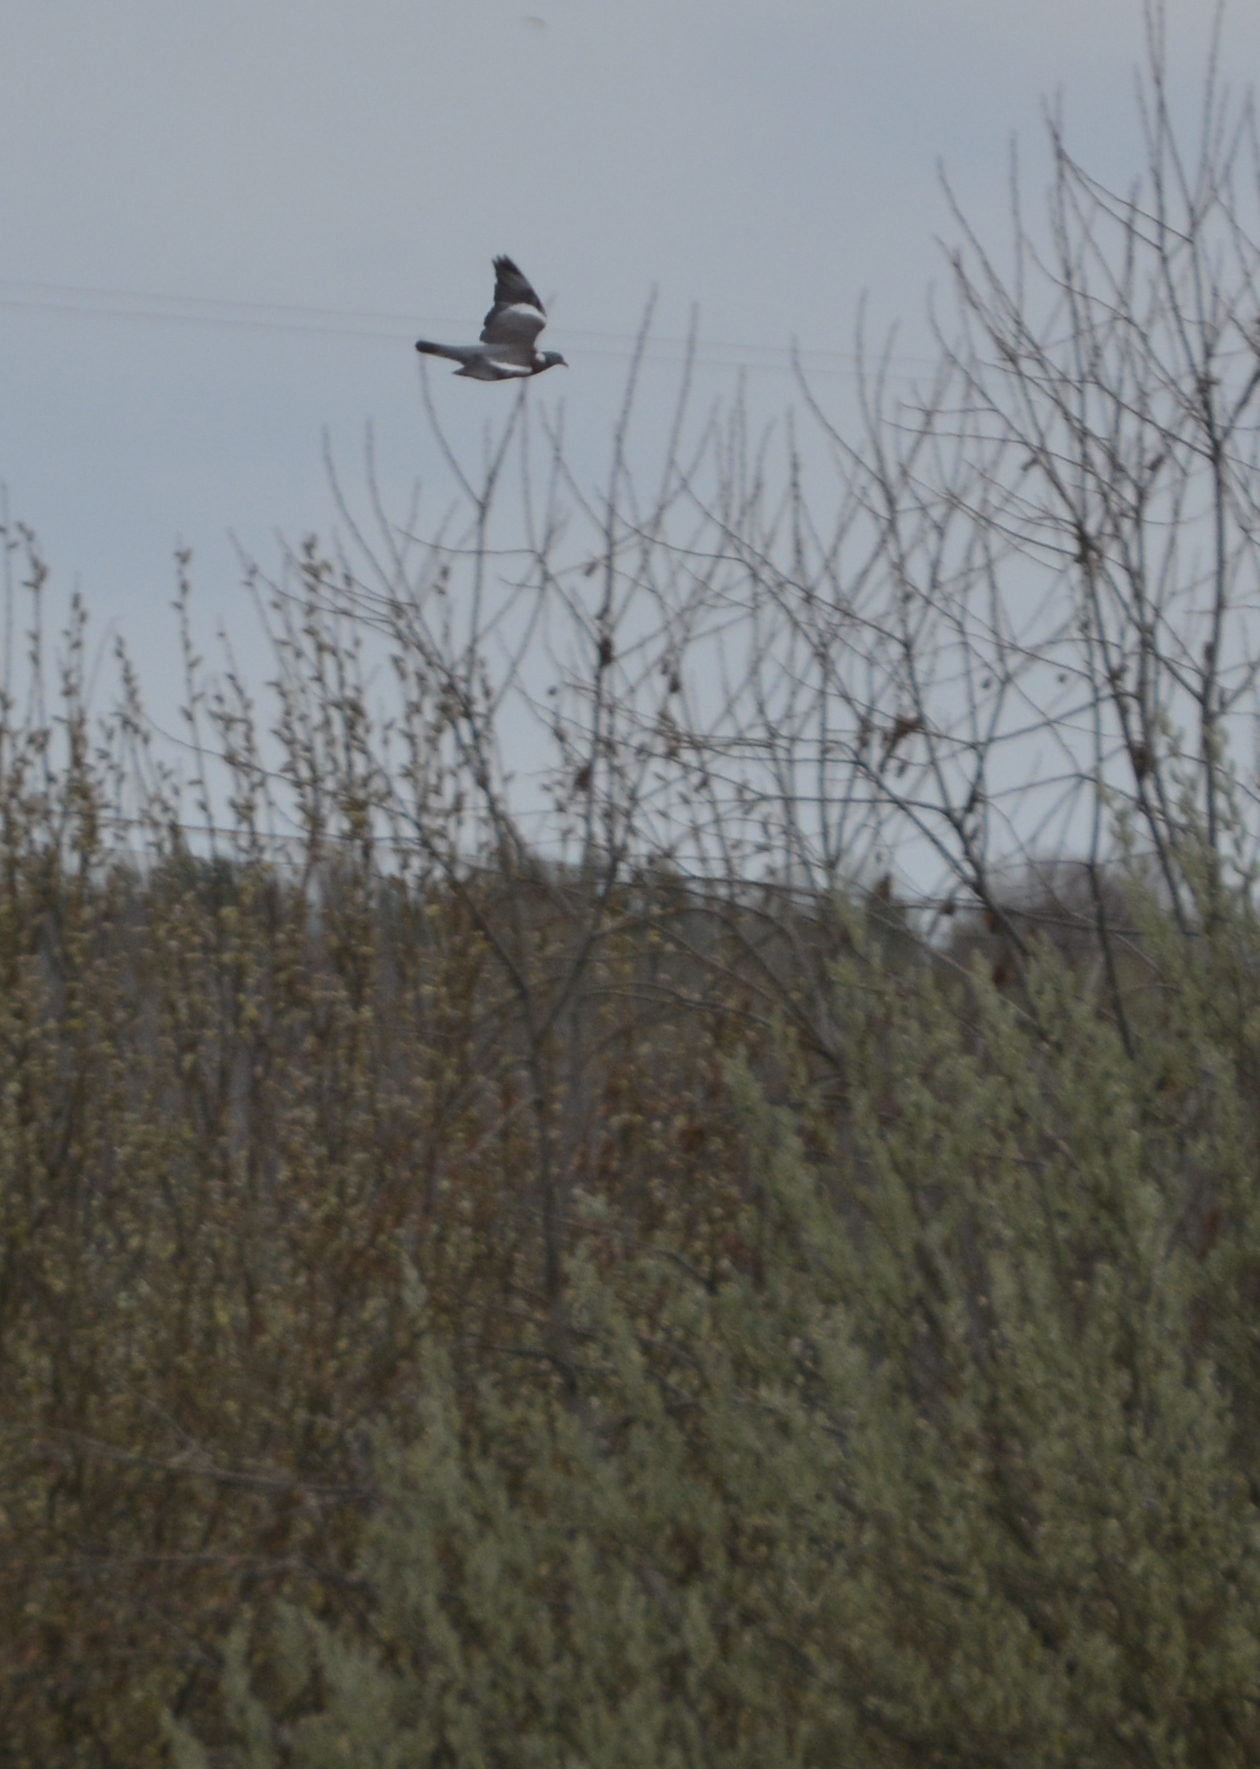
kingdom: Animalia
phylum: Chordata
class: Aves
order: Columbiformes
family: Columbidae
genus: Columba
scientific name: Columba palumbus
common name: Common wood pigeon
